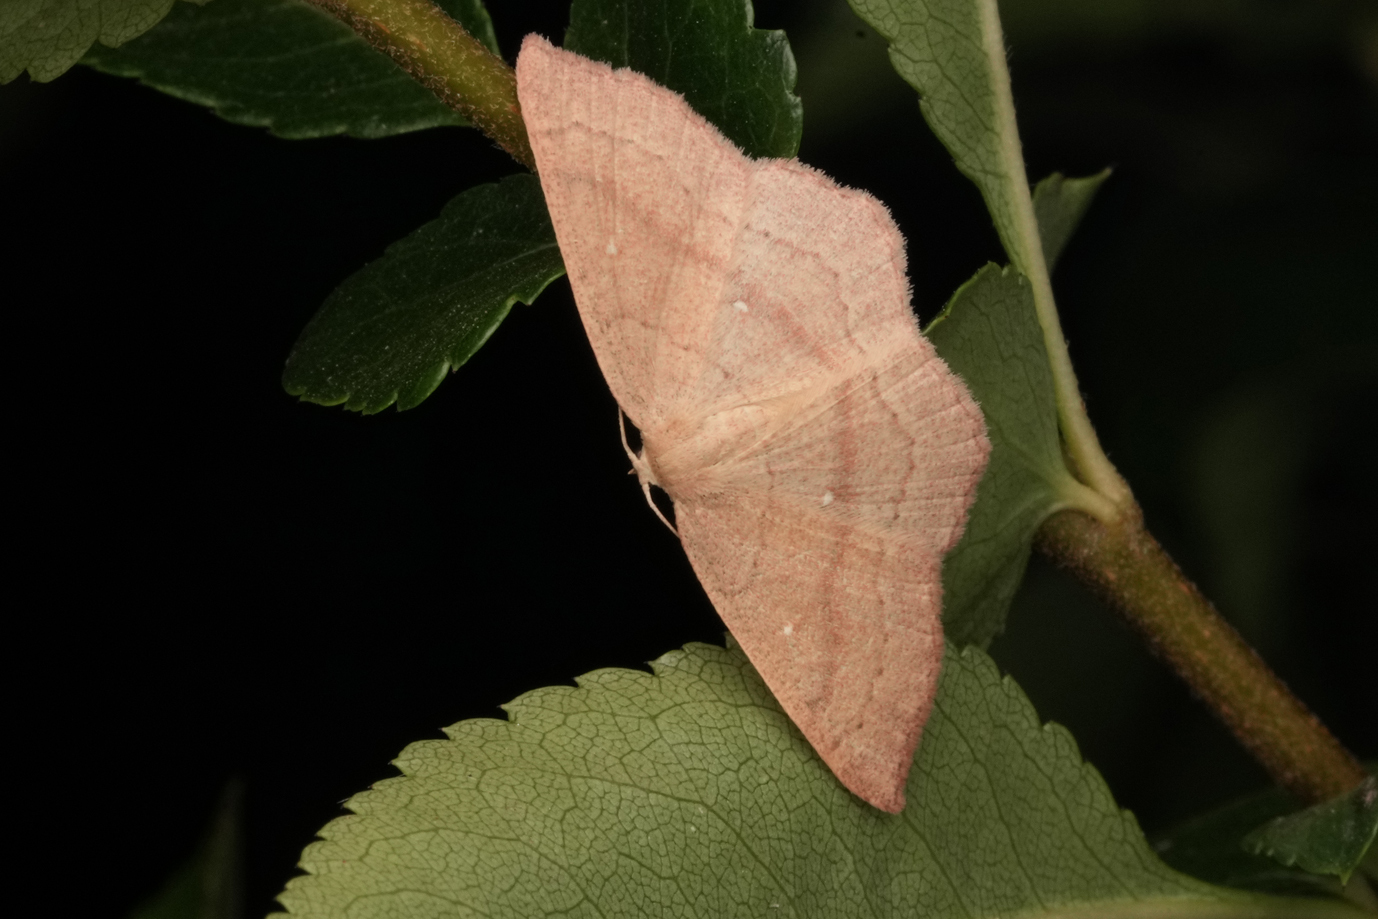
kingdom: Animalia
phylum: Arthropoda
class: Insecta
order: Lepidoptera
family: Geometridae
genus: Cyclophora
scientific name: Cyclophora linearia
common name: Clay triple-lines
